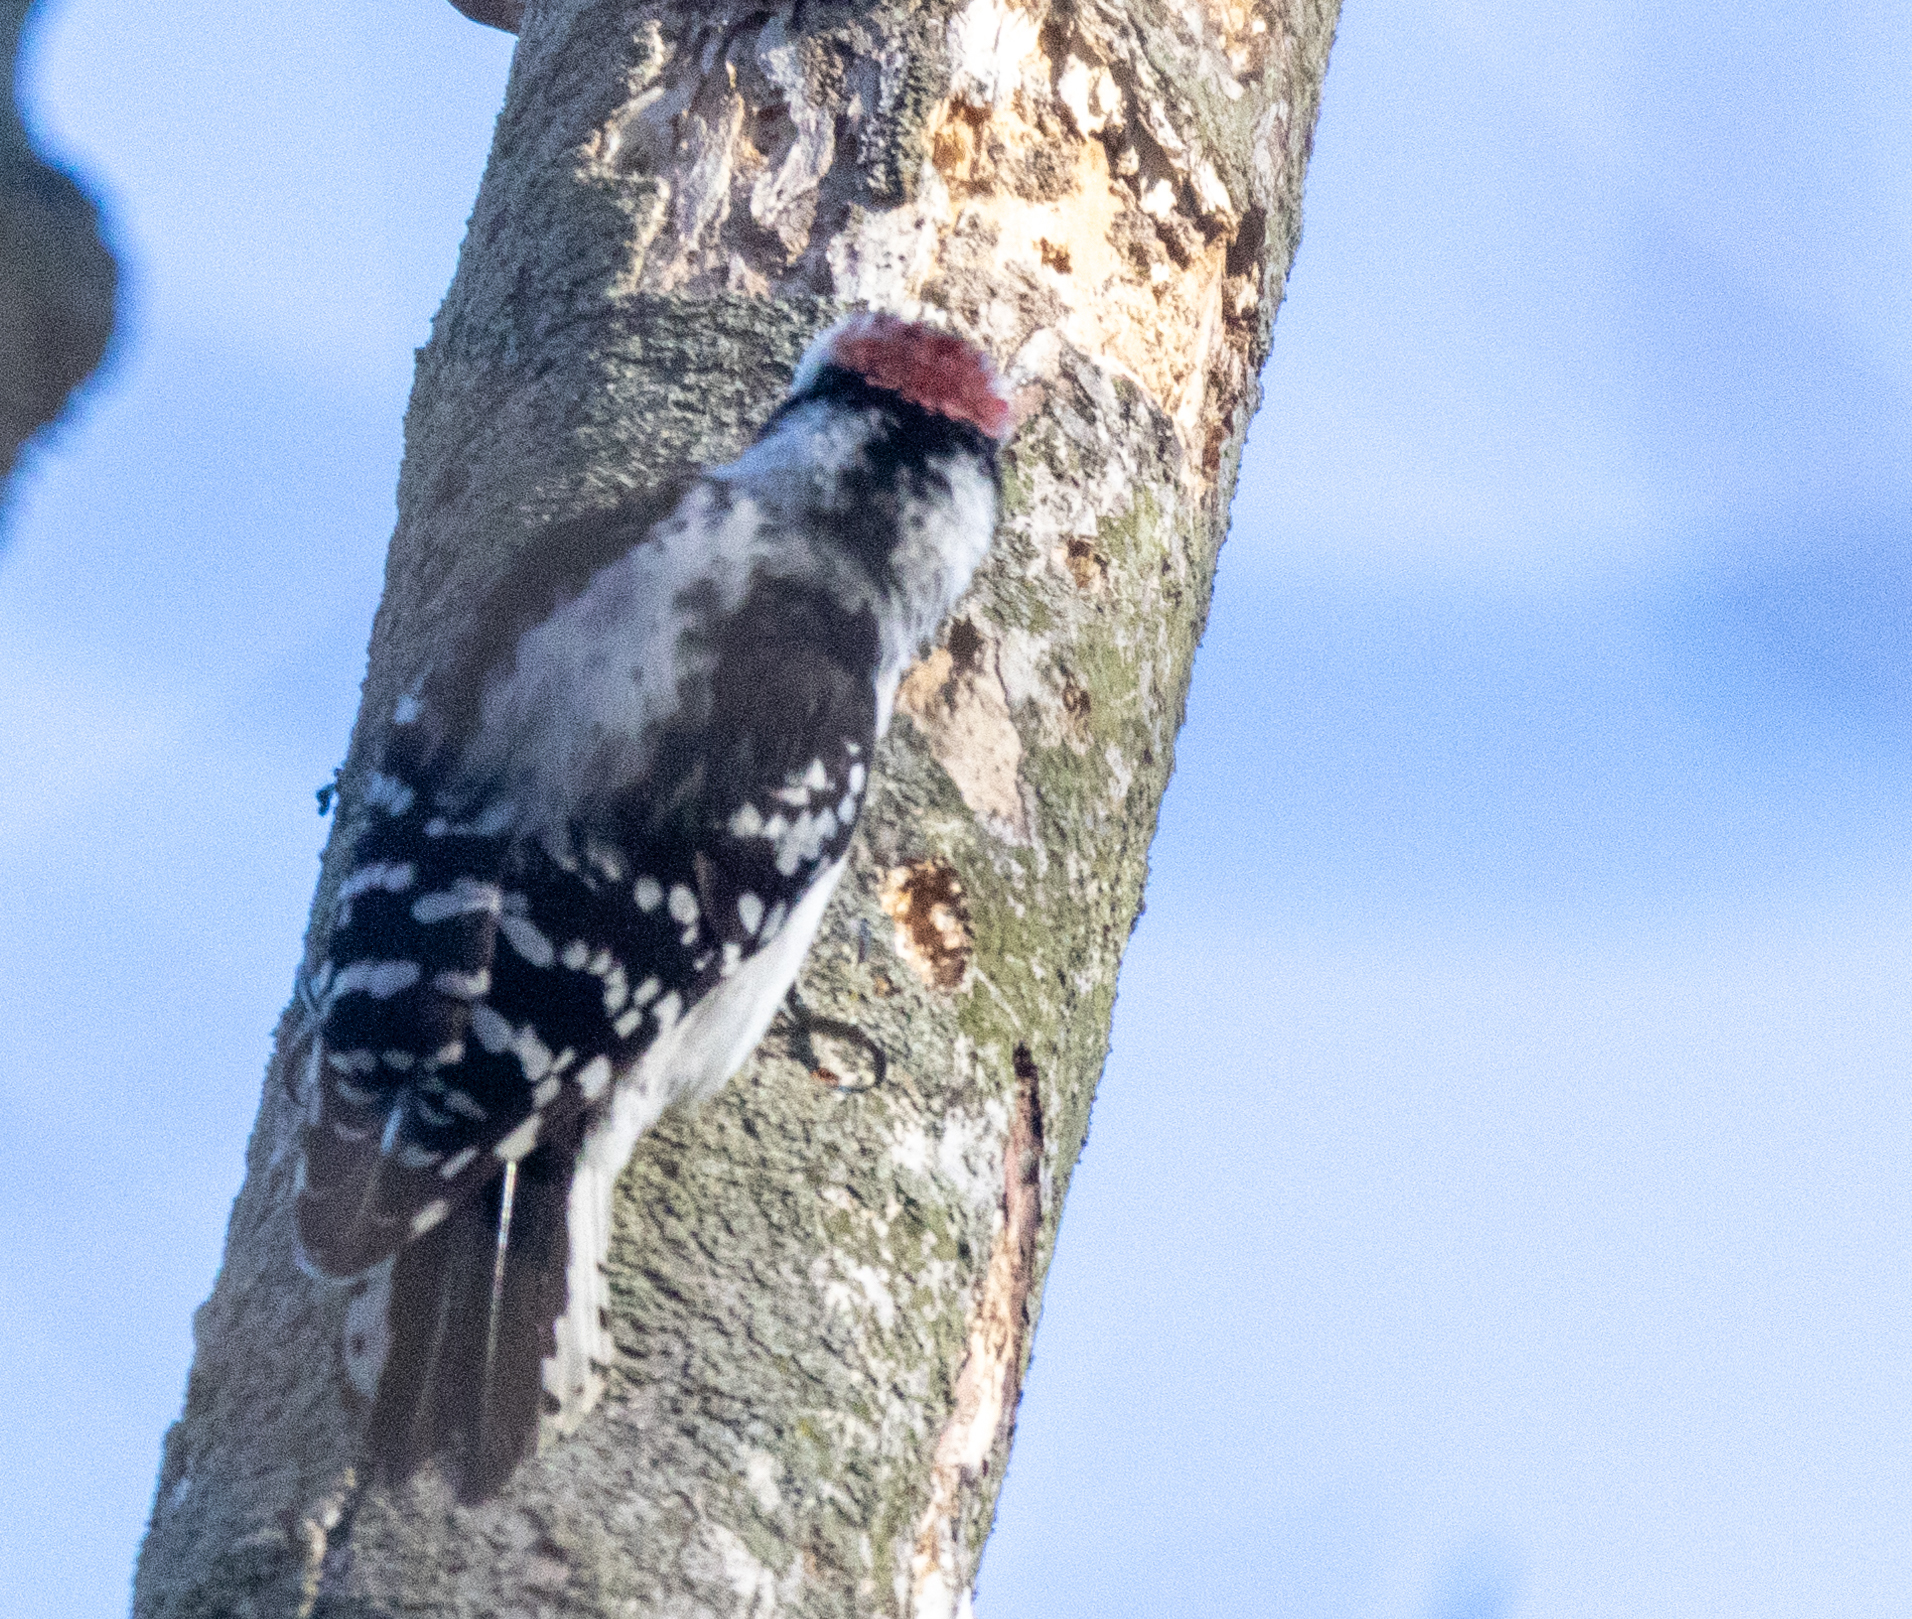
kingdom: Animalia
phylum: Chordata
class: Aves
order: Piciformes
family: Picidae
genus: Dryobates
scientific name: Dryobates pubescens
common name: Downy woodpecker
